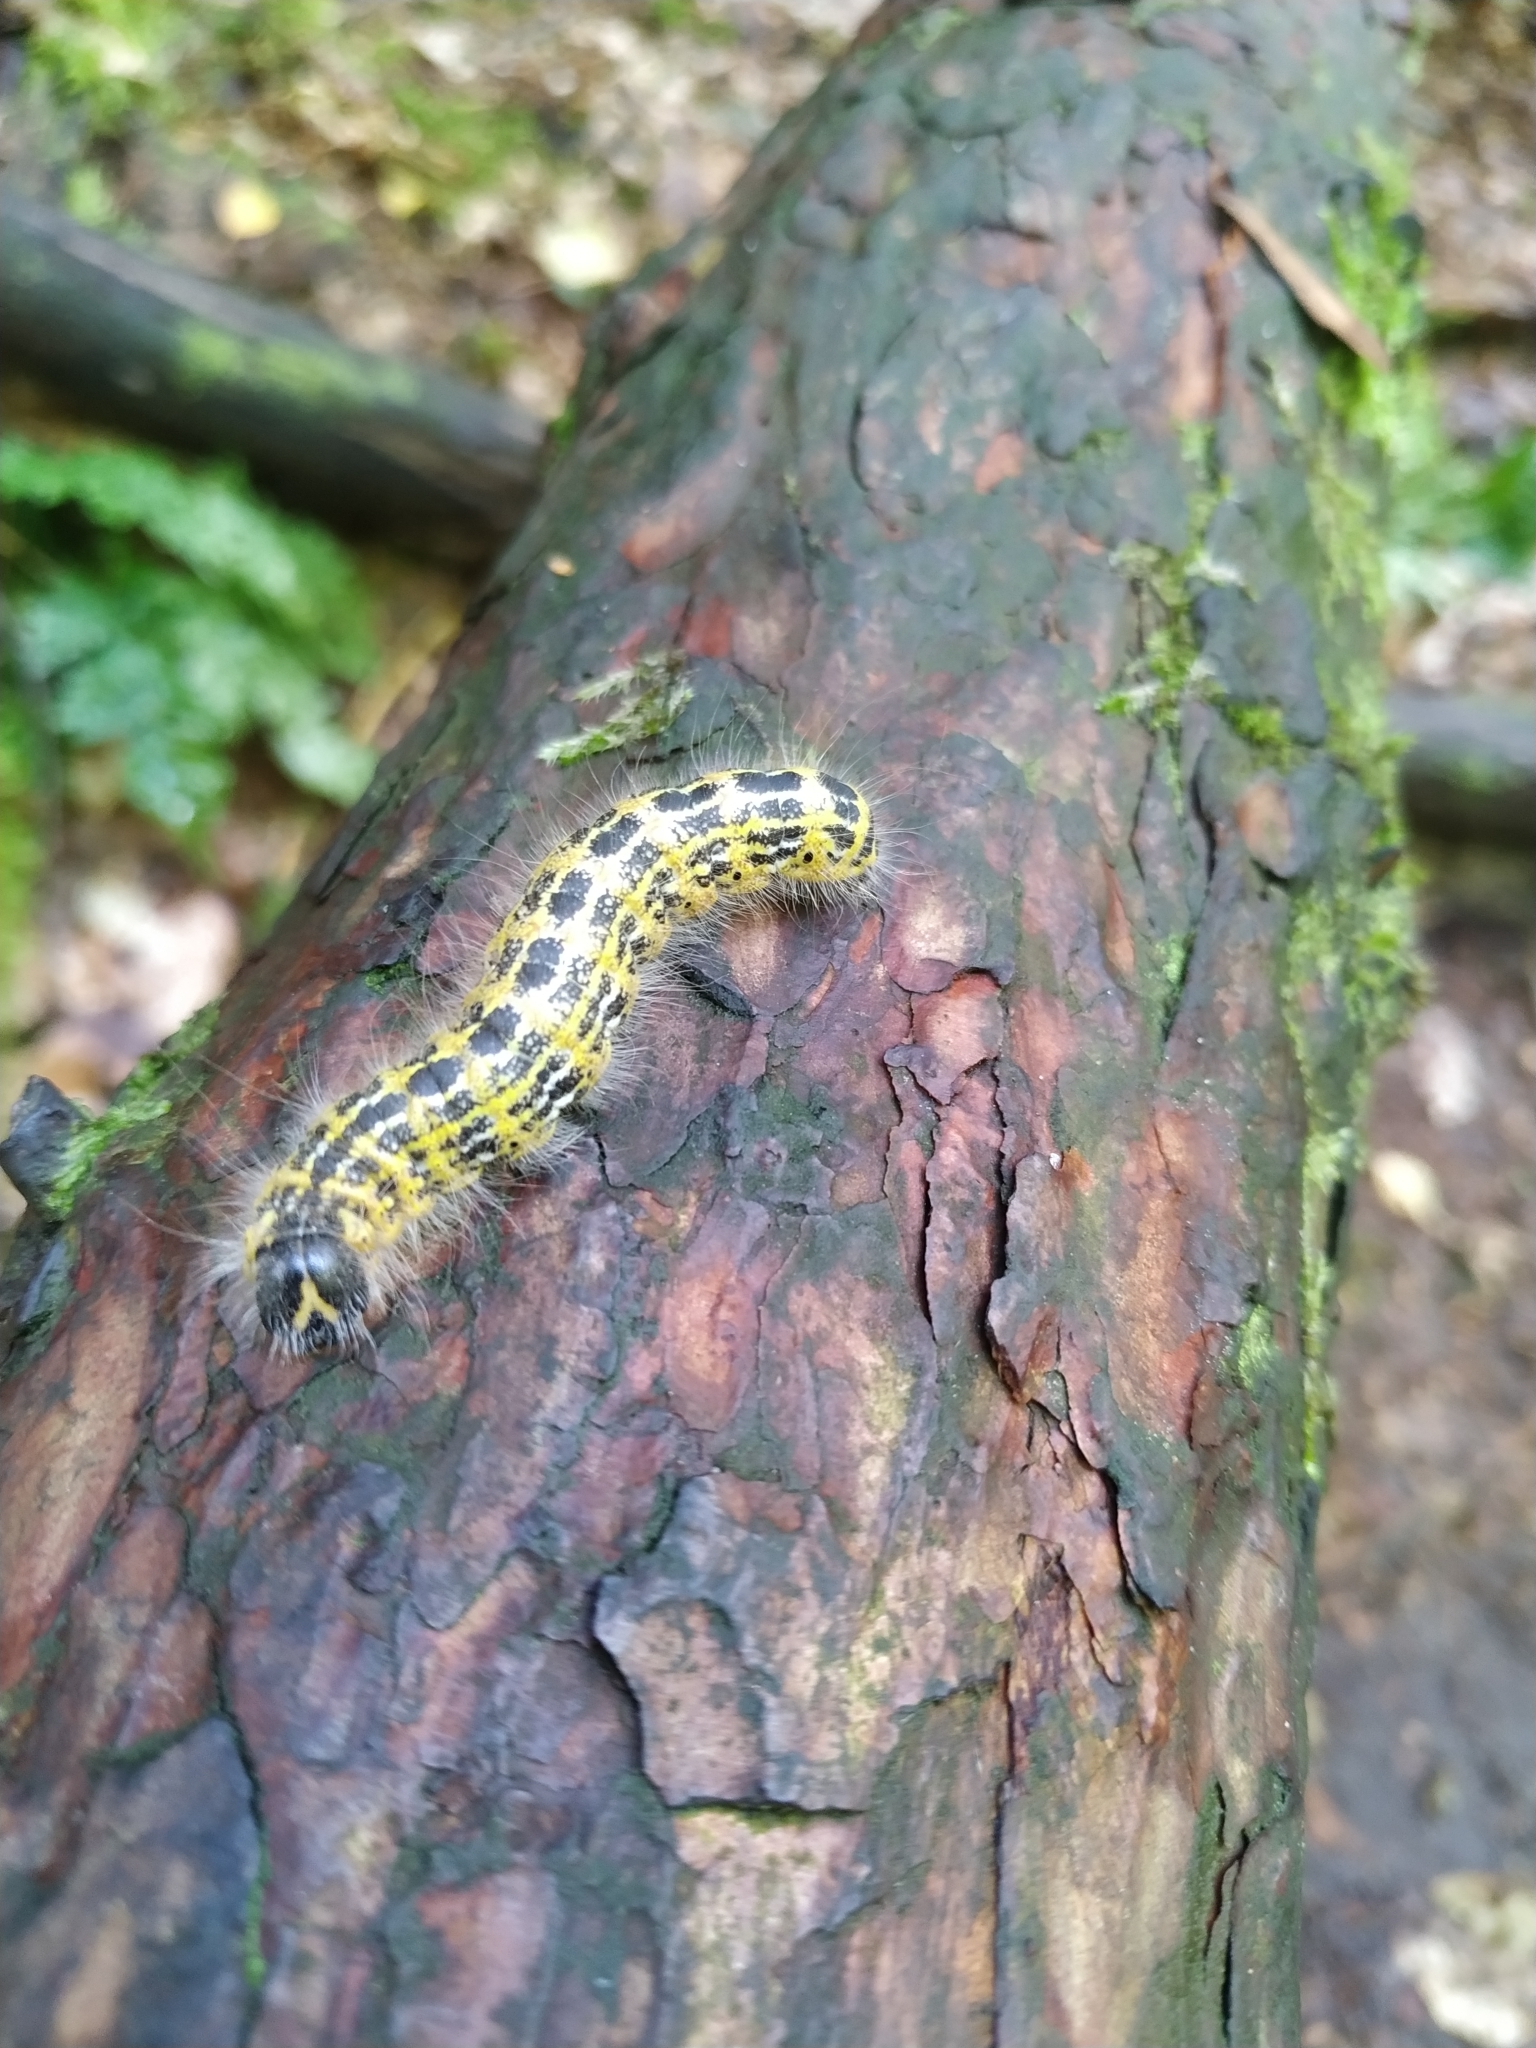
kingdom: Animalia
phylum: Arthropoda
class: Insecta
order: Lepidoptera
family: Notodontidae
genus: Phalera
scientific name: Phalera bucephala
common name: Buff-tip
